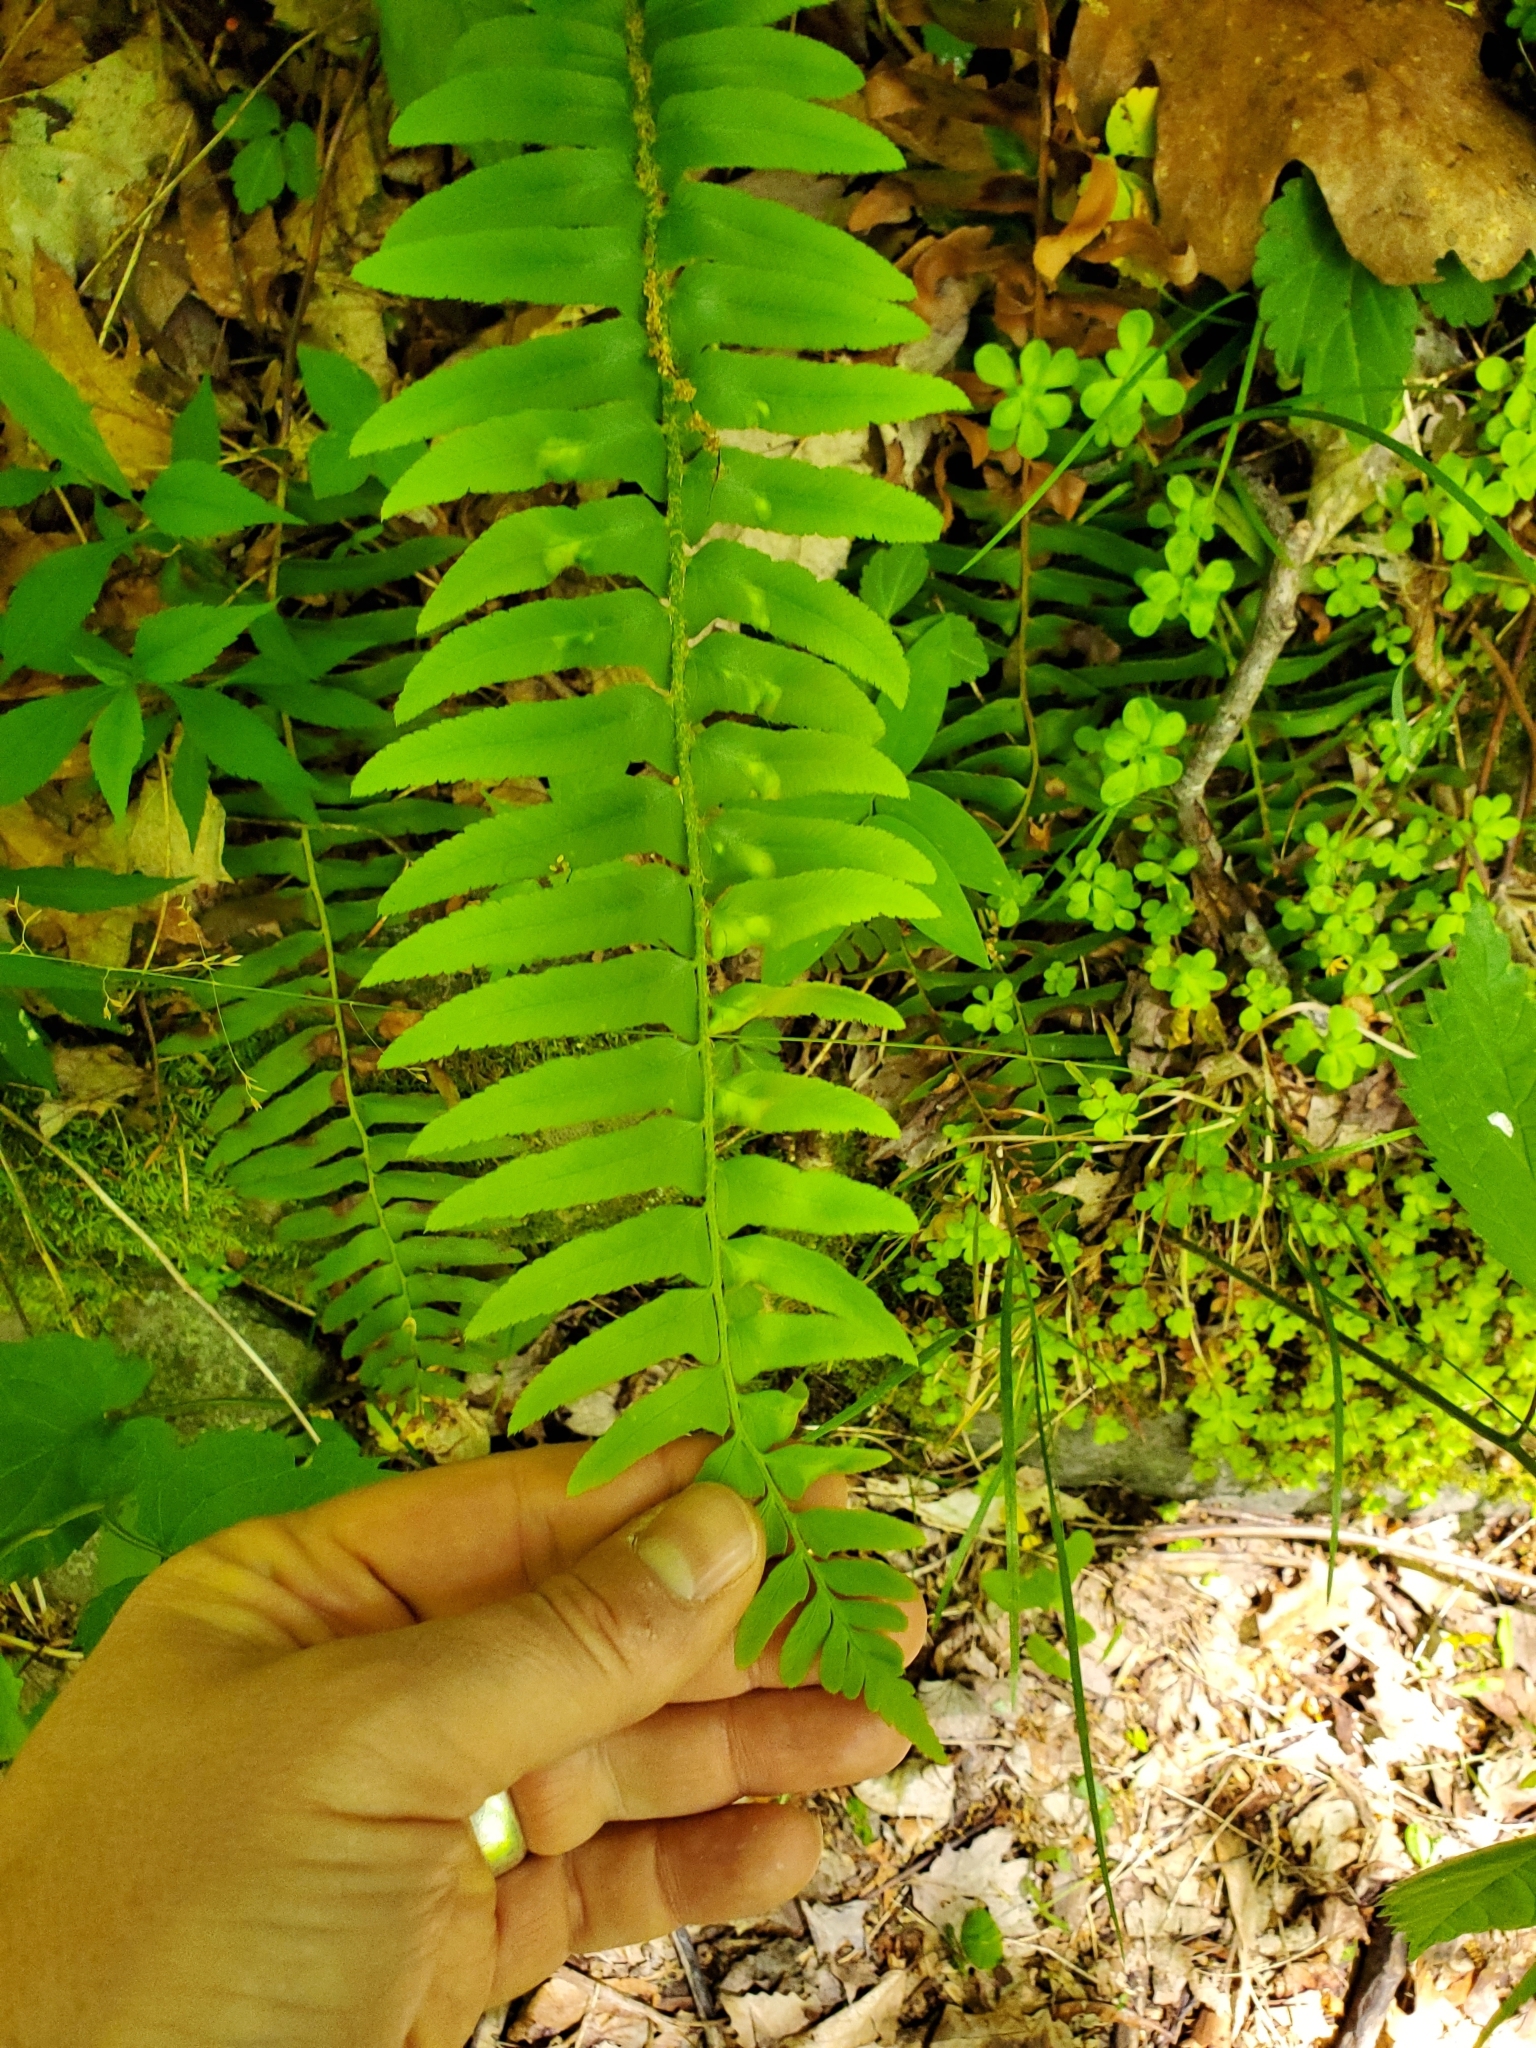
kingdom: Fungi
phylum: Ascomycota
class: Taphrinomycetes
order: Taphrinales
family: Taphrinaceae
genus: Taphrina
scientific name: Taphrina polystichi
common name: Christmas fern leaf curl
